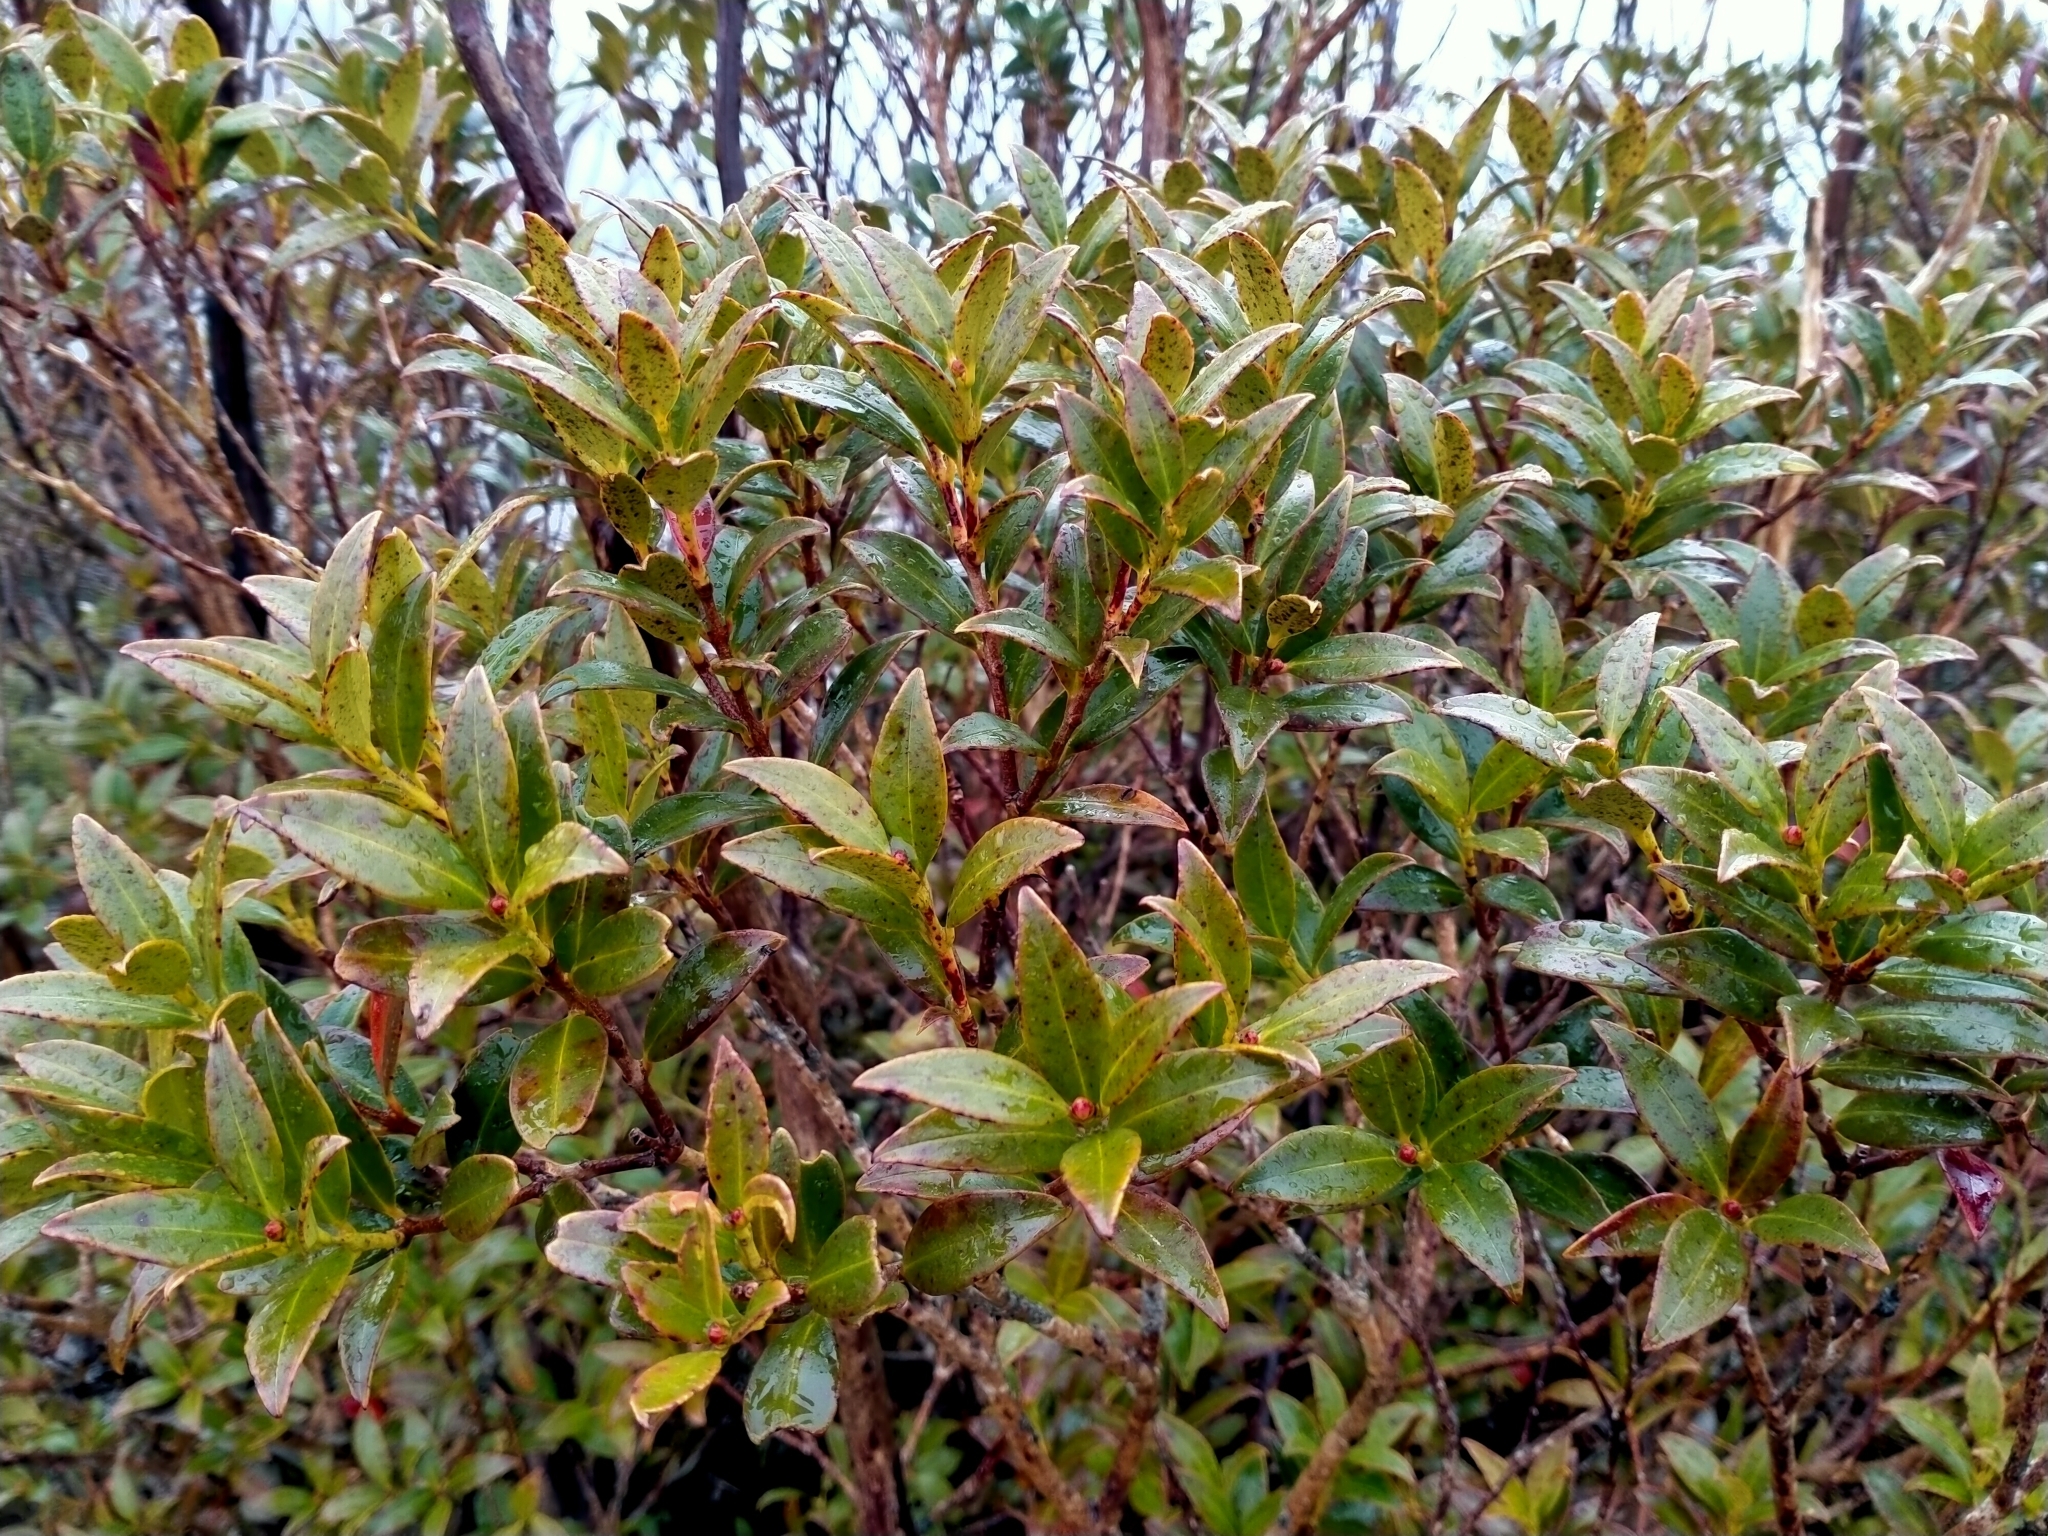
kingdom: Plantae
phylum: Tracheophyta
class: Magnoliopsida
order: Myrtales
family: Myrtaceae
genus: Metrosideros
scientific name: Metrosideros umbellata
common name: Southern rata
